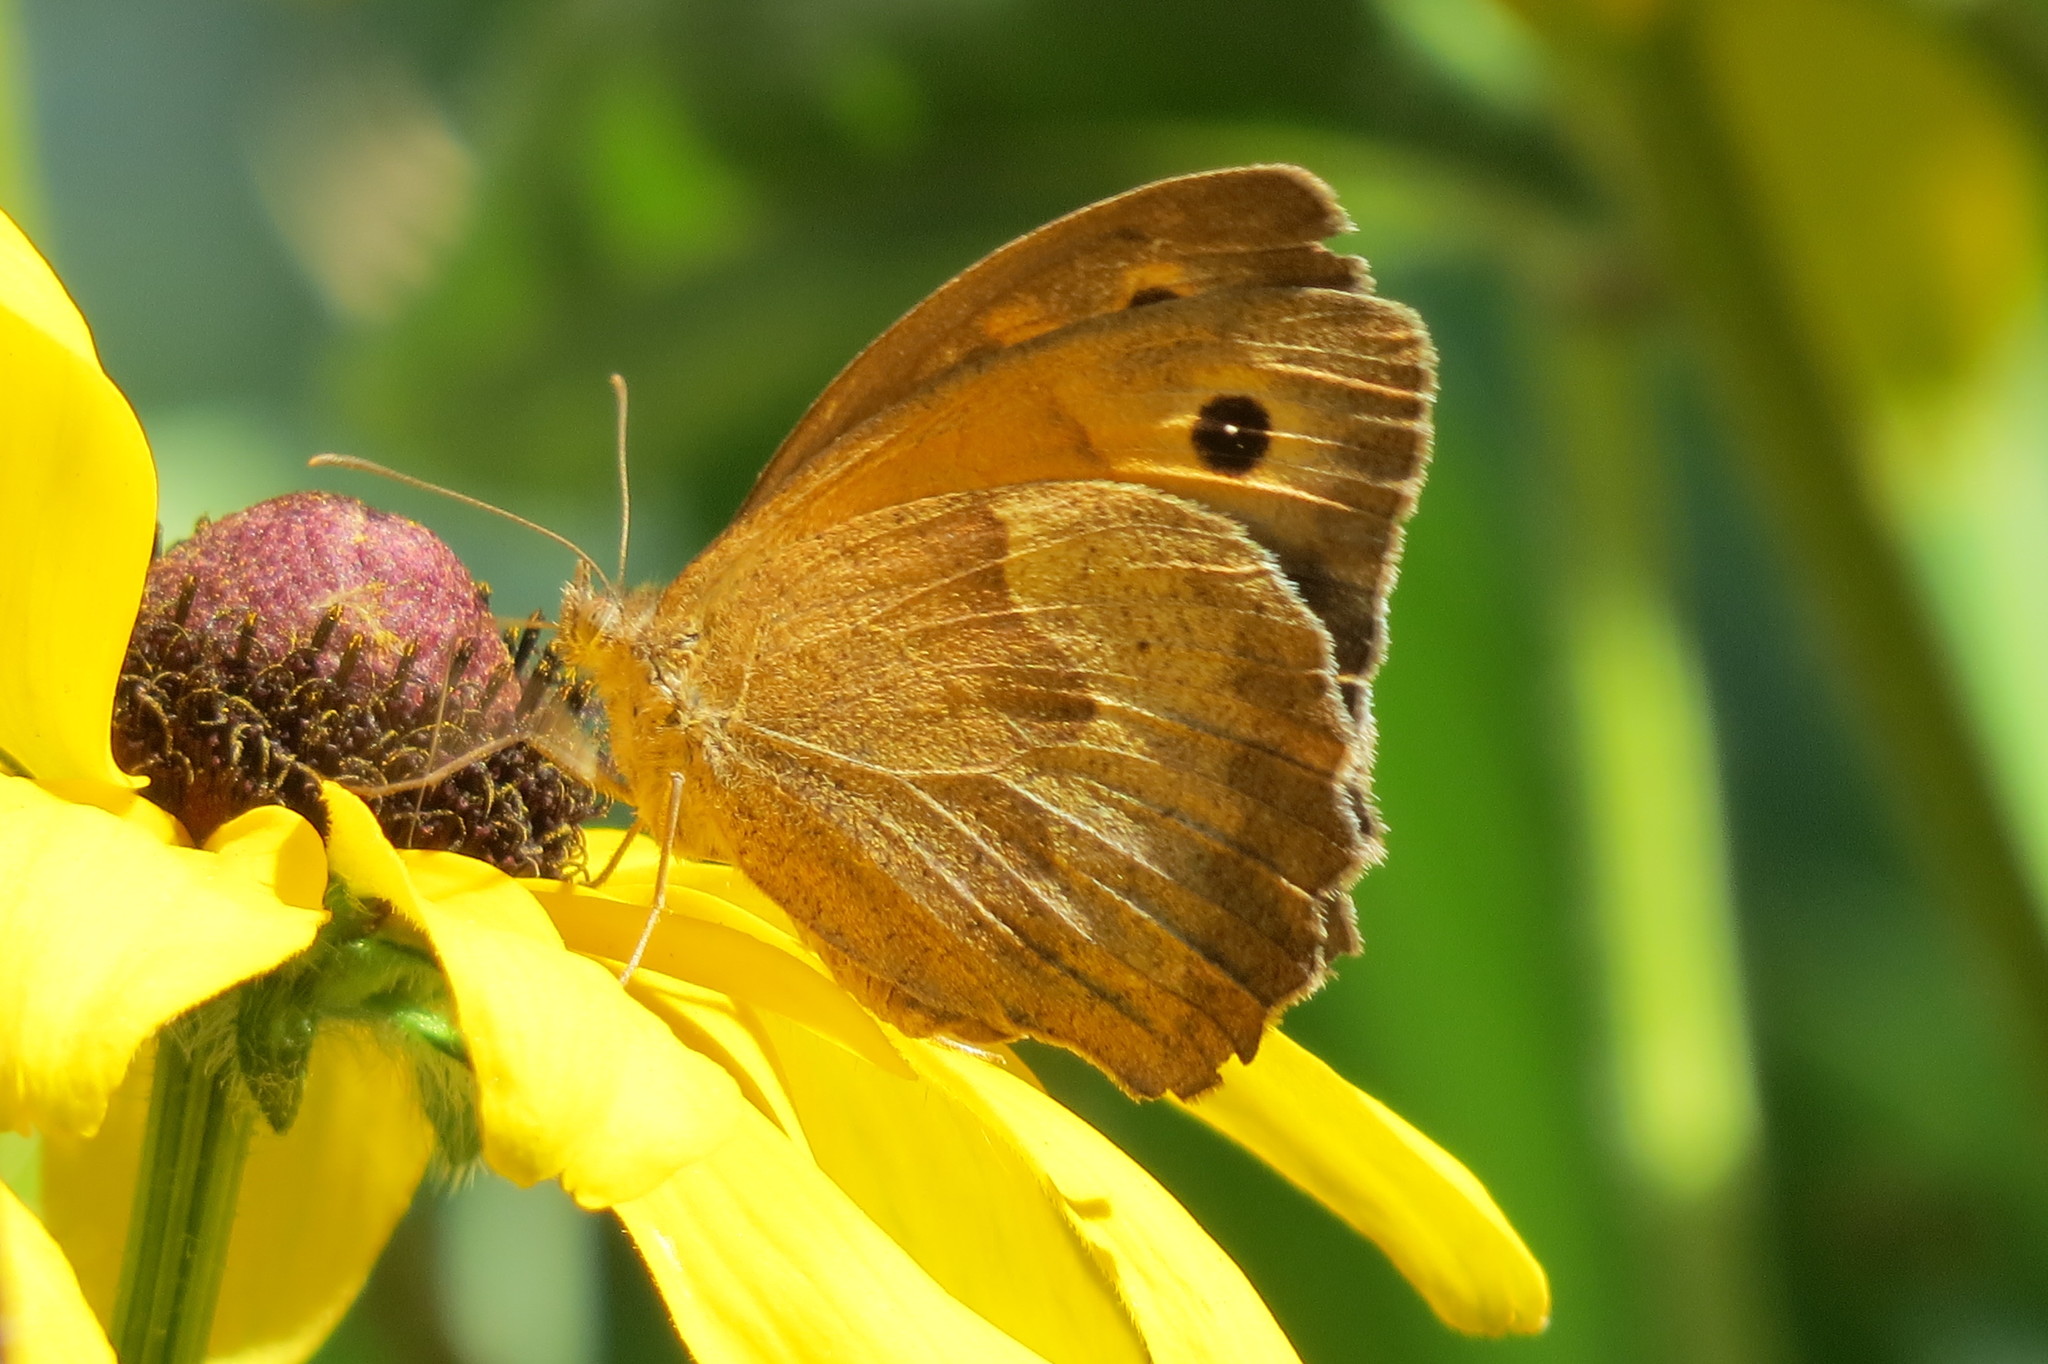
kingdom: Animalia
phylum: Arthropoda
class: Insecta
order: Lepidoptera
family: Nymphalidae
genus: Maniola
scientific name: Maniola jurtina
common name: Meadow brown
